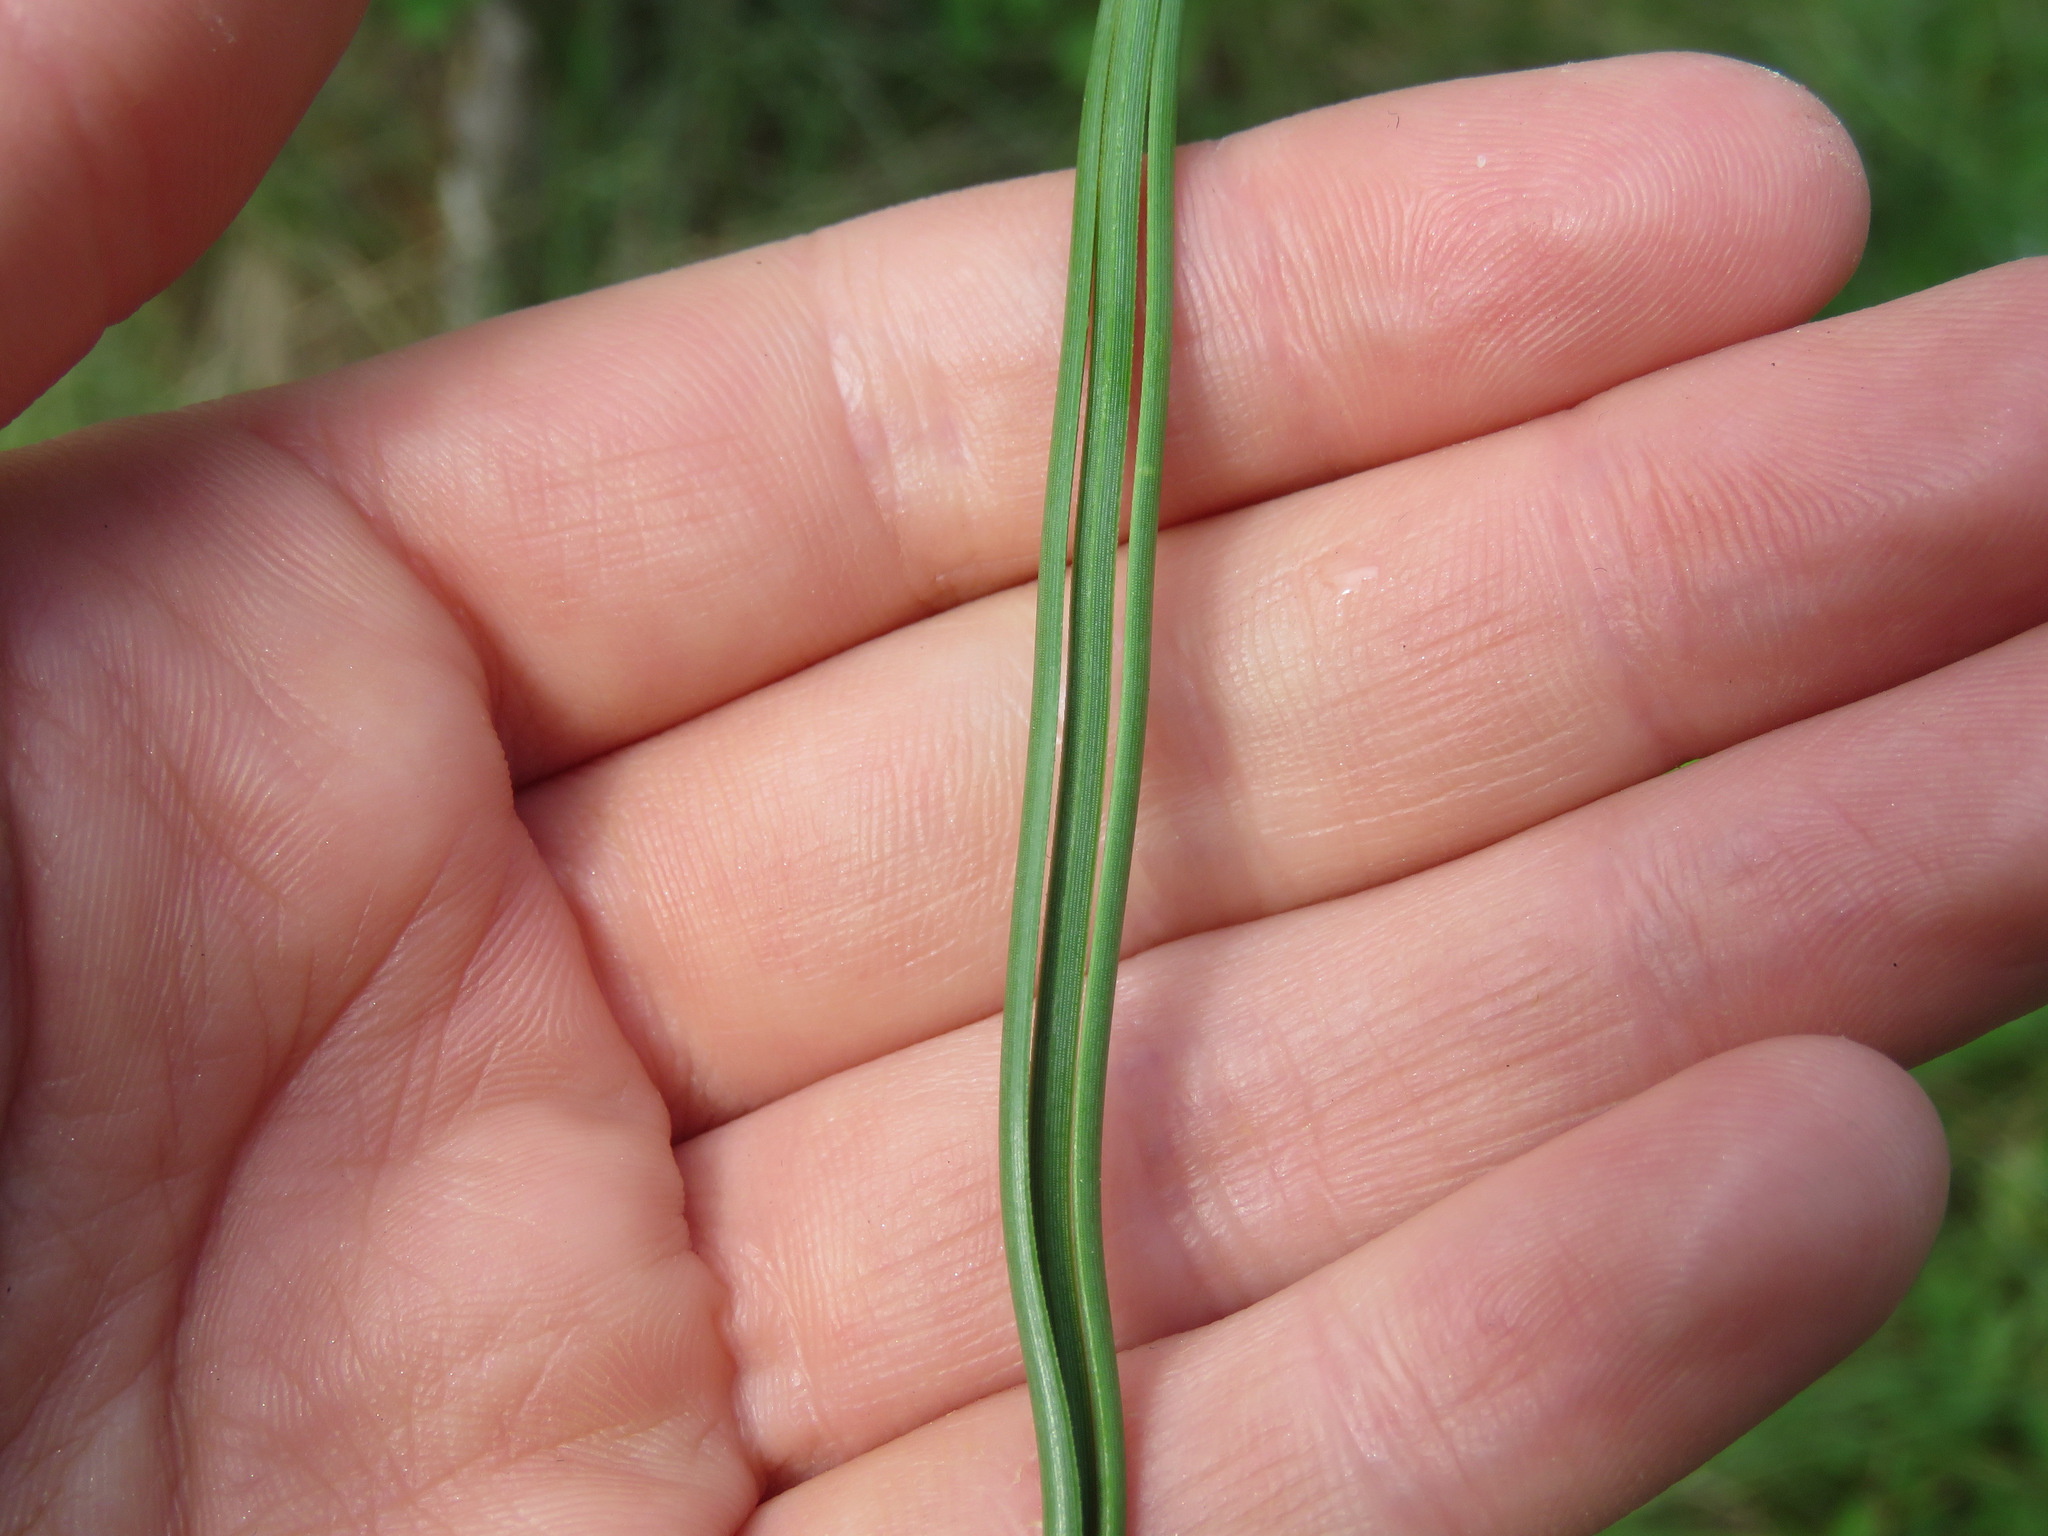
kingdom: Plantae
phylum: Tracheophyta
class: Pinopsida
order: Pinales
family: Pinaceae
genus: Pinus
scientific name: Pinus ponderosa
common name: Western yellow-pine
